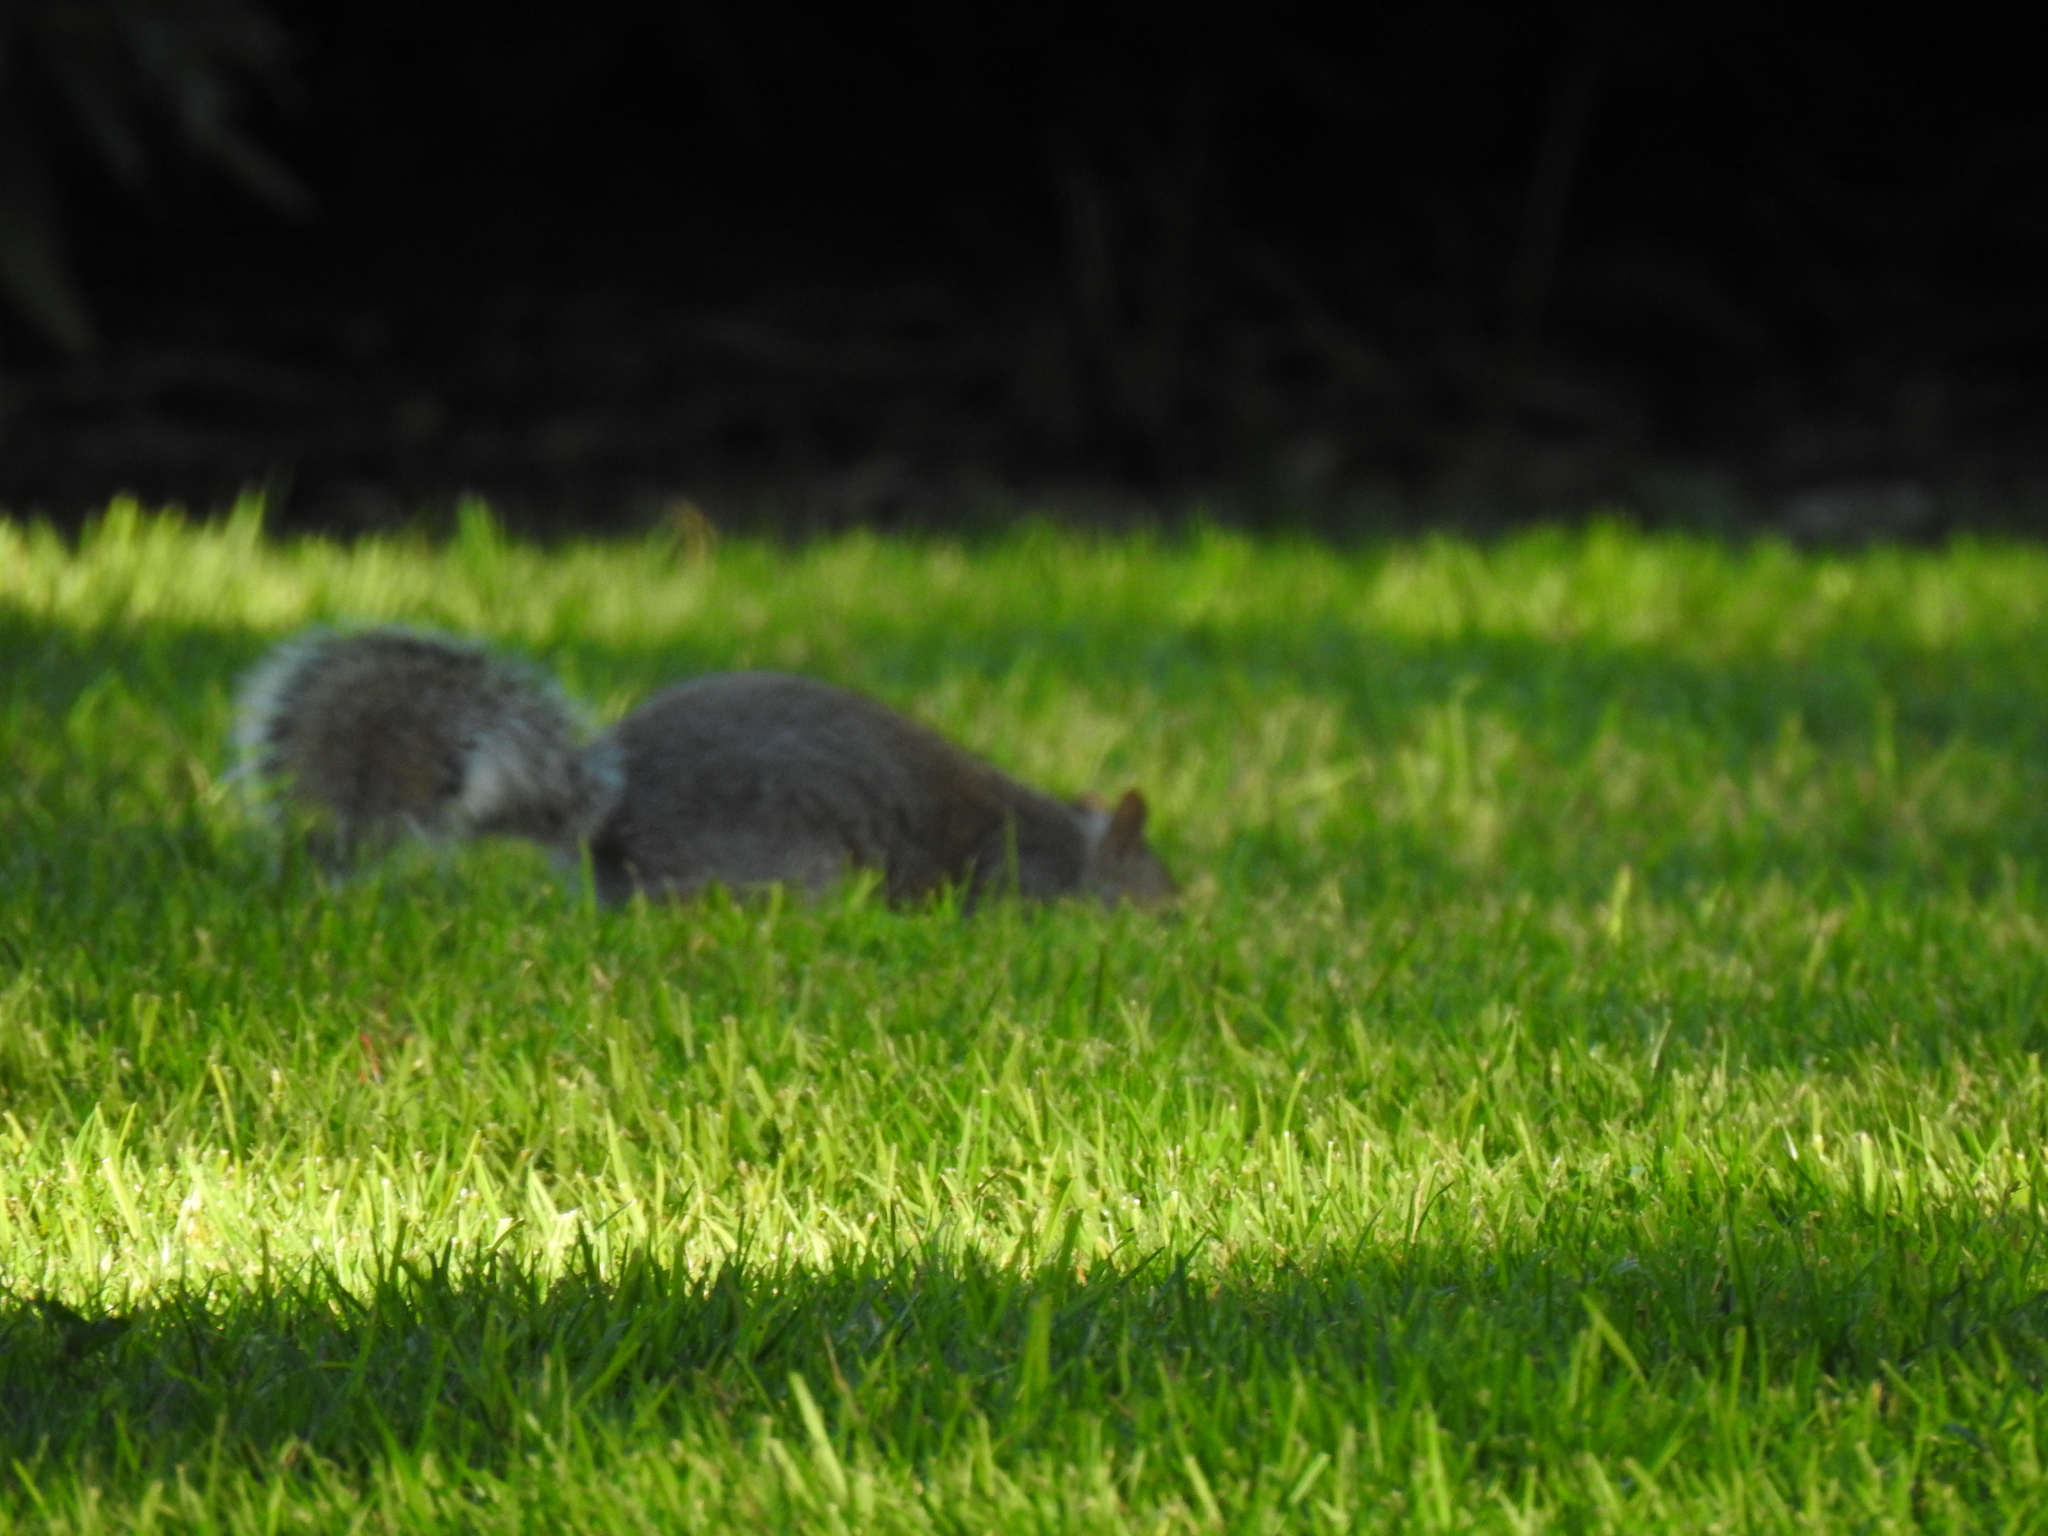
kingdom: Animalia
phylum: Chordata
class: Mammalia
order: Rodentia
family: Sciuridae
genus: Sciurus
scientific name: Sciurus carolinensis
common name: Eastern gray squirrel
